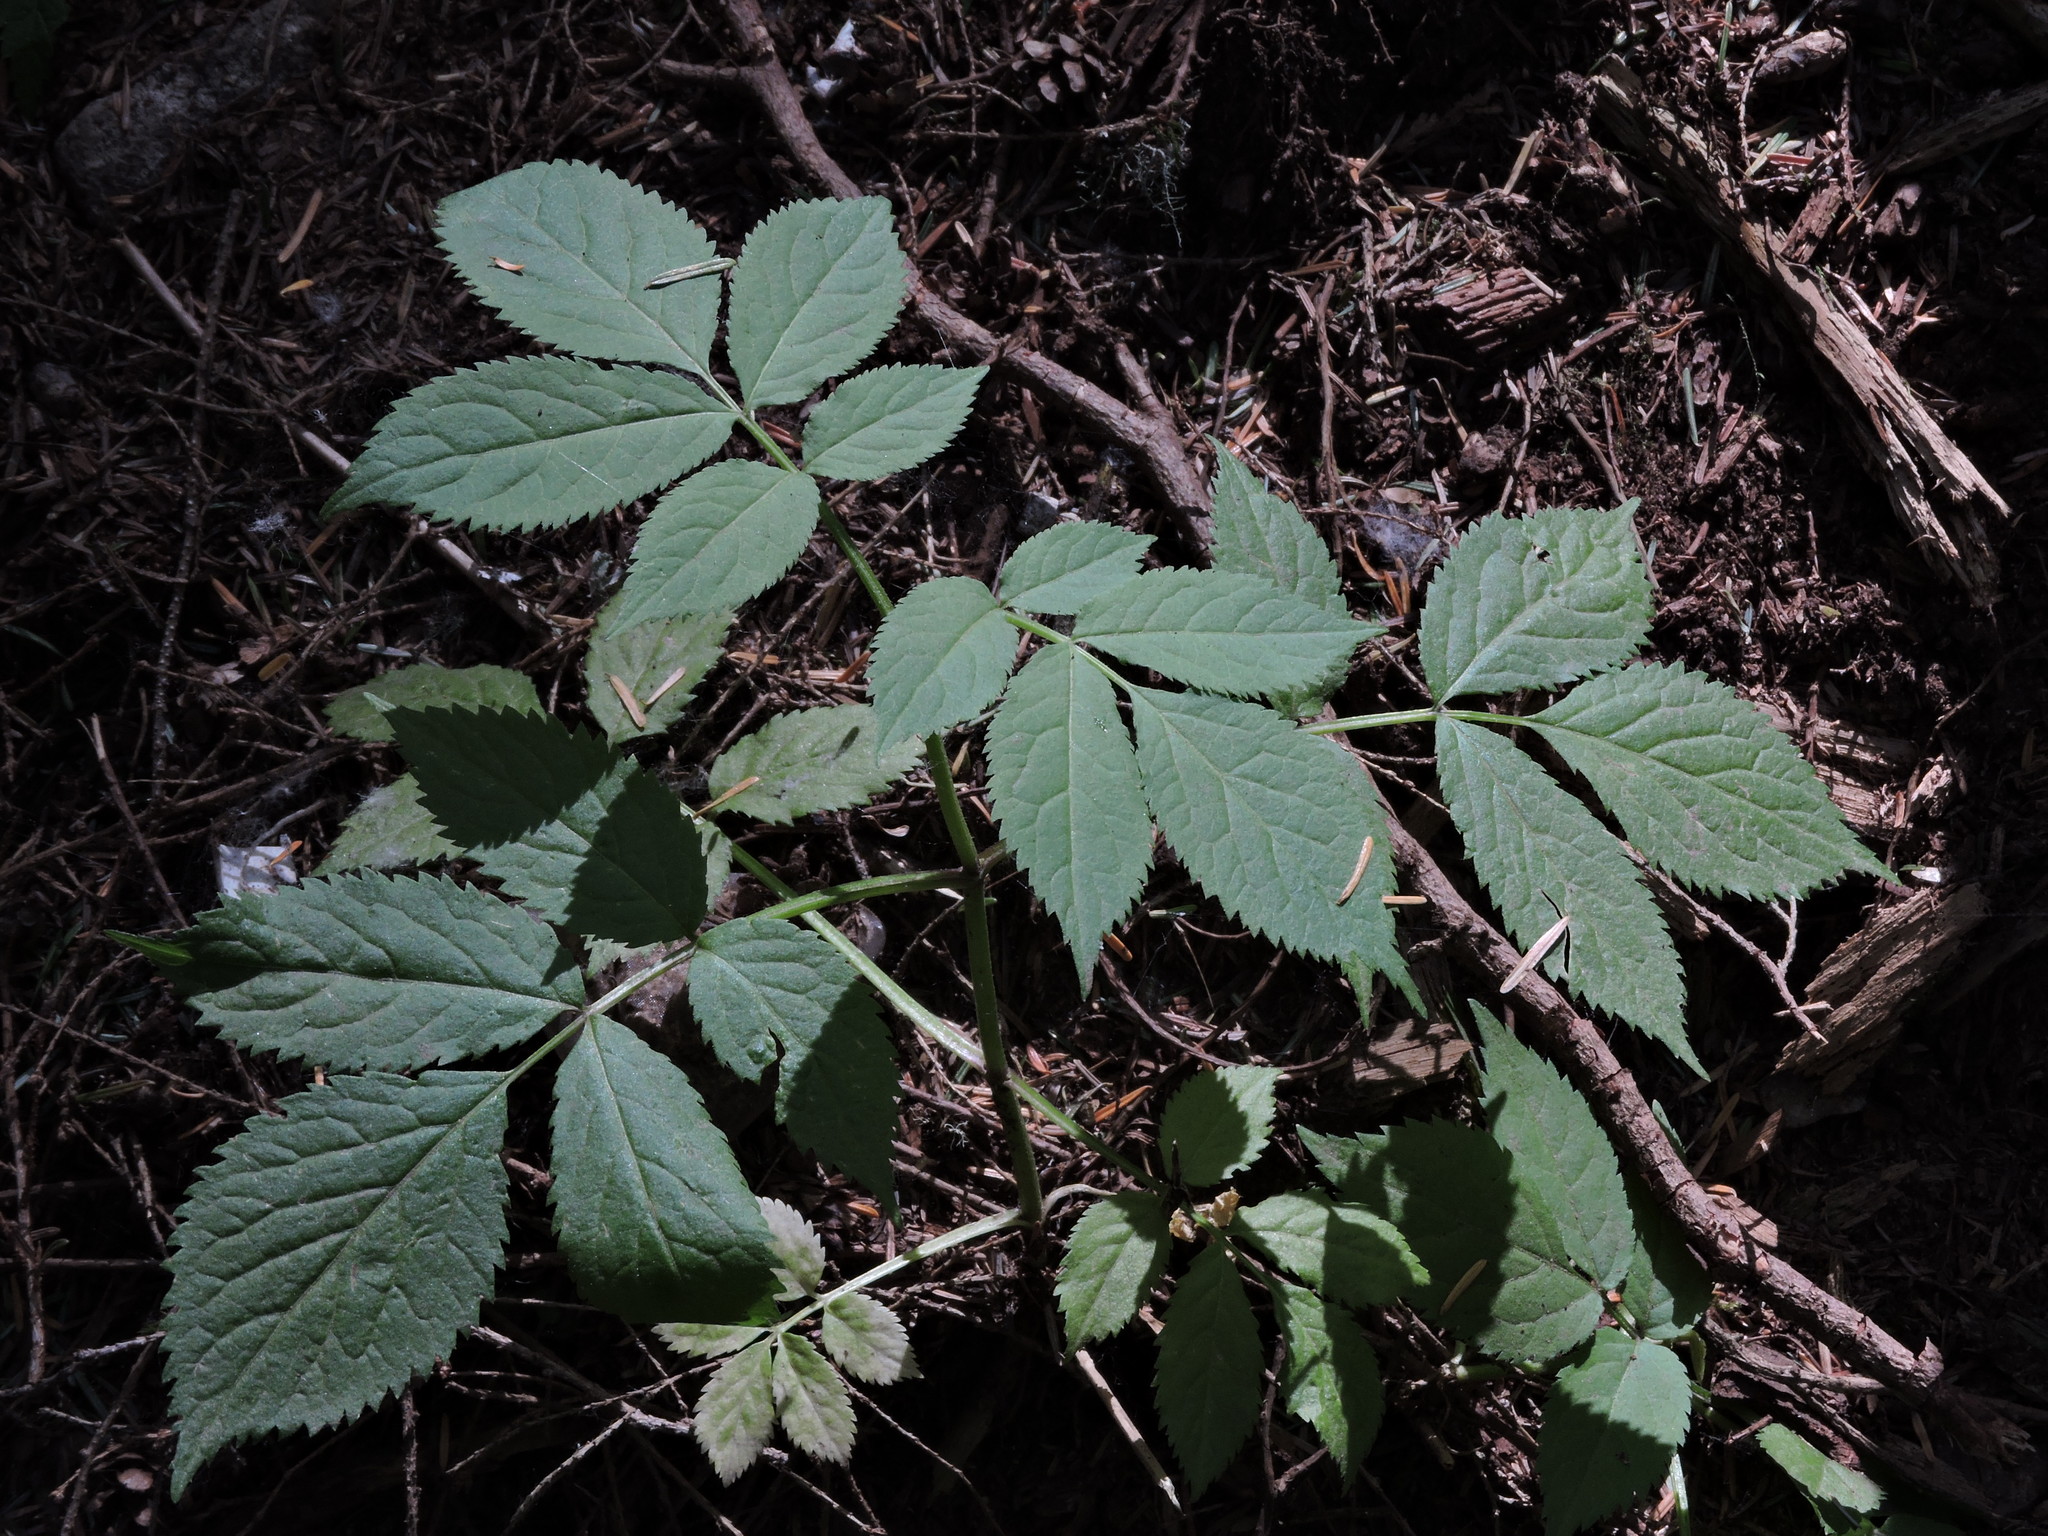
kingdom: Plantae
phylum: Tracheophyta
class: Magnoliopsida
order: Dipsacales
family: Viburnaceae
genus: Sambucus
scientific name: Sambucus racemosa
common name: Red-berried elder
